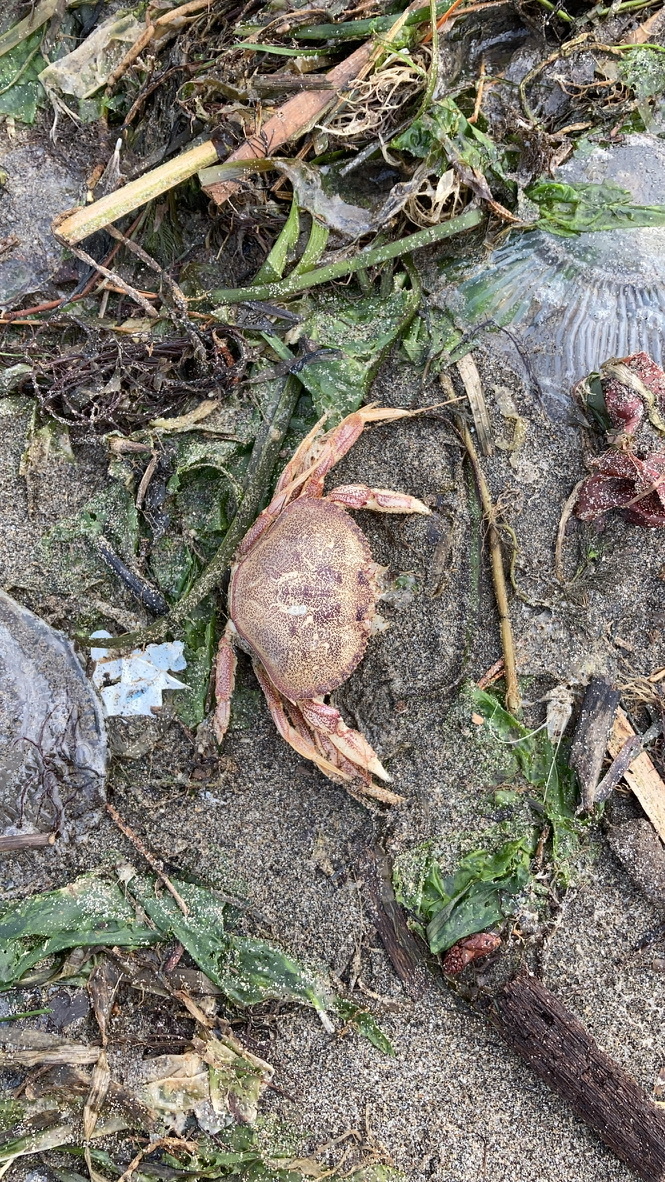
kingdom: Animalia
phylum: Arthropoda
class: Malacostraca
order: Decapoda
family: Cancridae
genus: Metacarcinus
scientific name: Metacarcinus magister
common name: Californian crab
